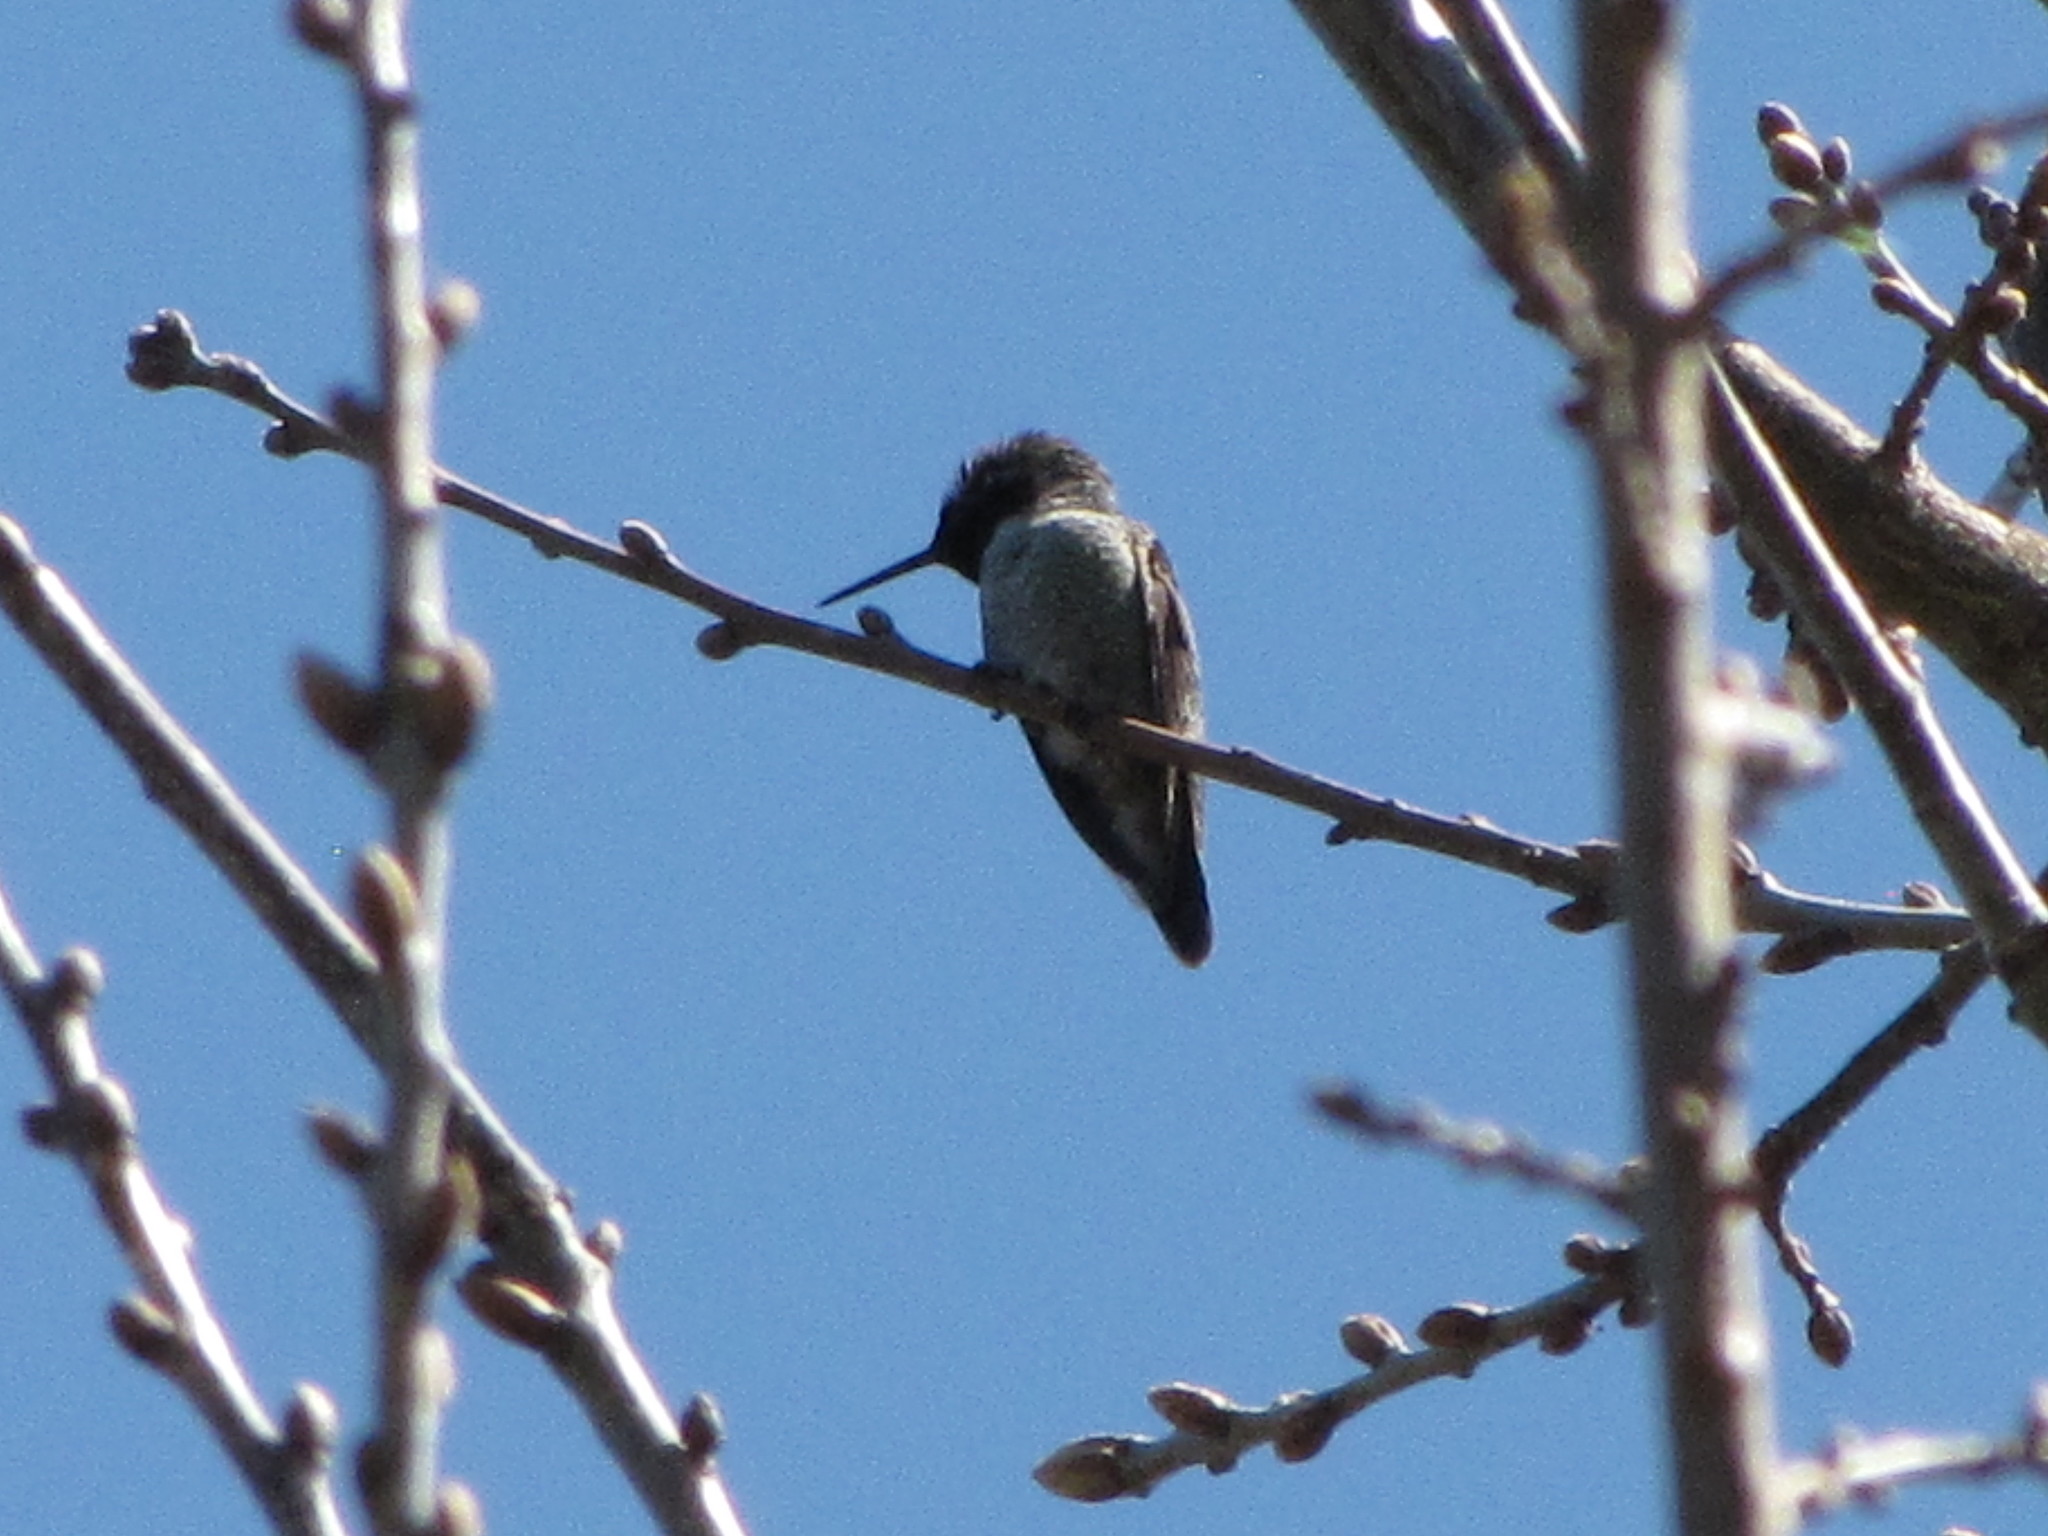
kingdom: Animalia
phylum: Chordata
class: Aves
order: Apodiformes
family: Trochilidae
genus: Calypte
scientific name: Calypte anna
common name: Anna's hummingbird
